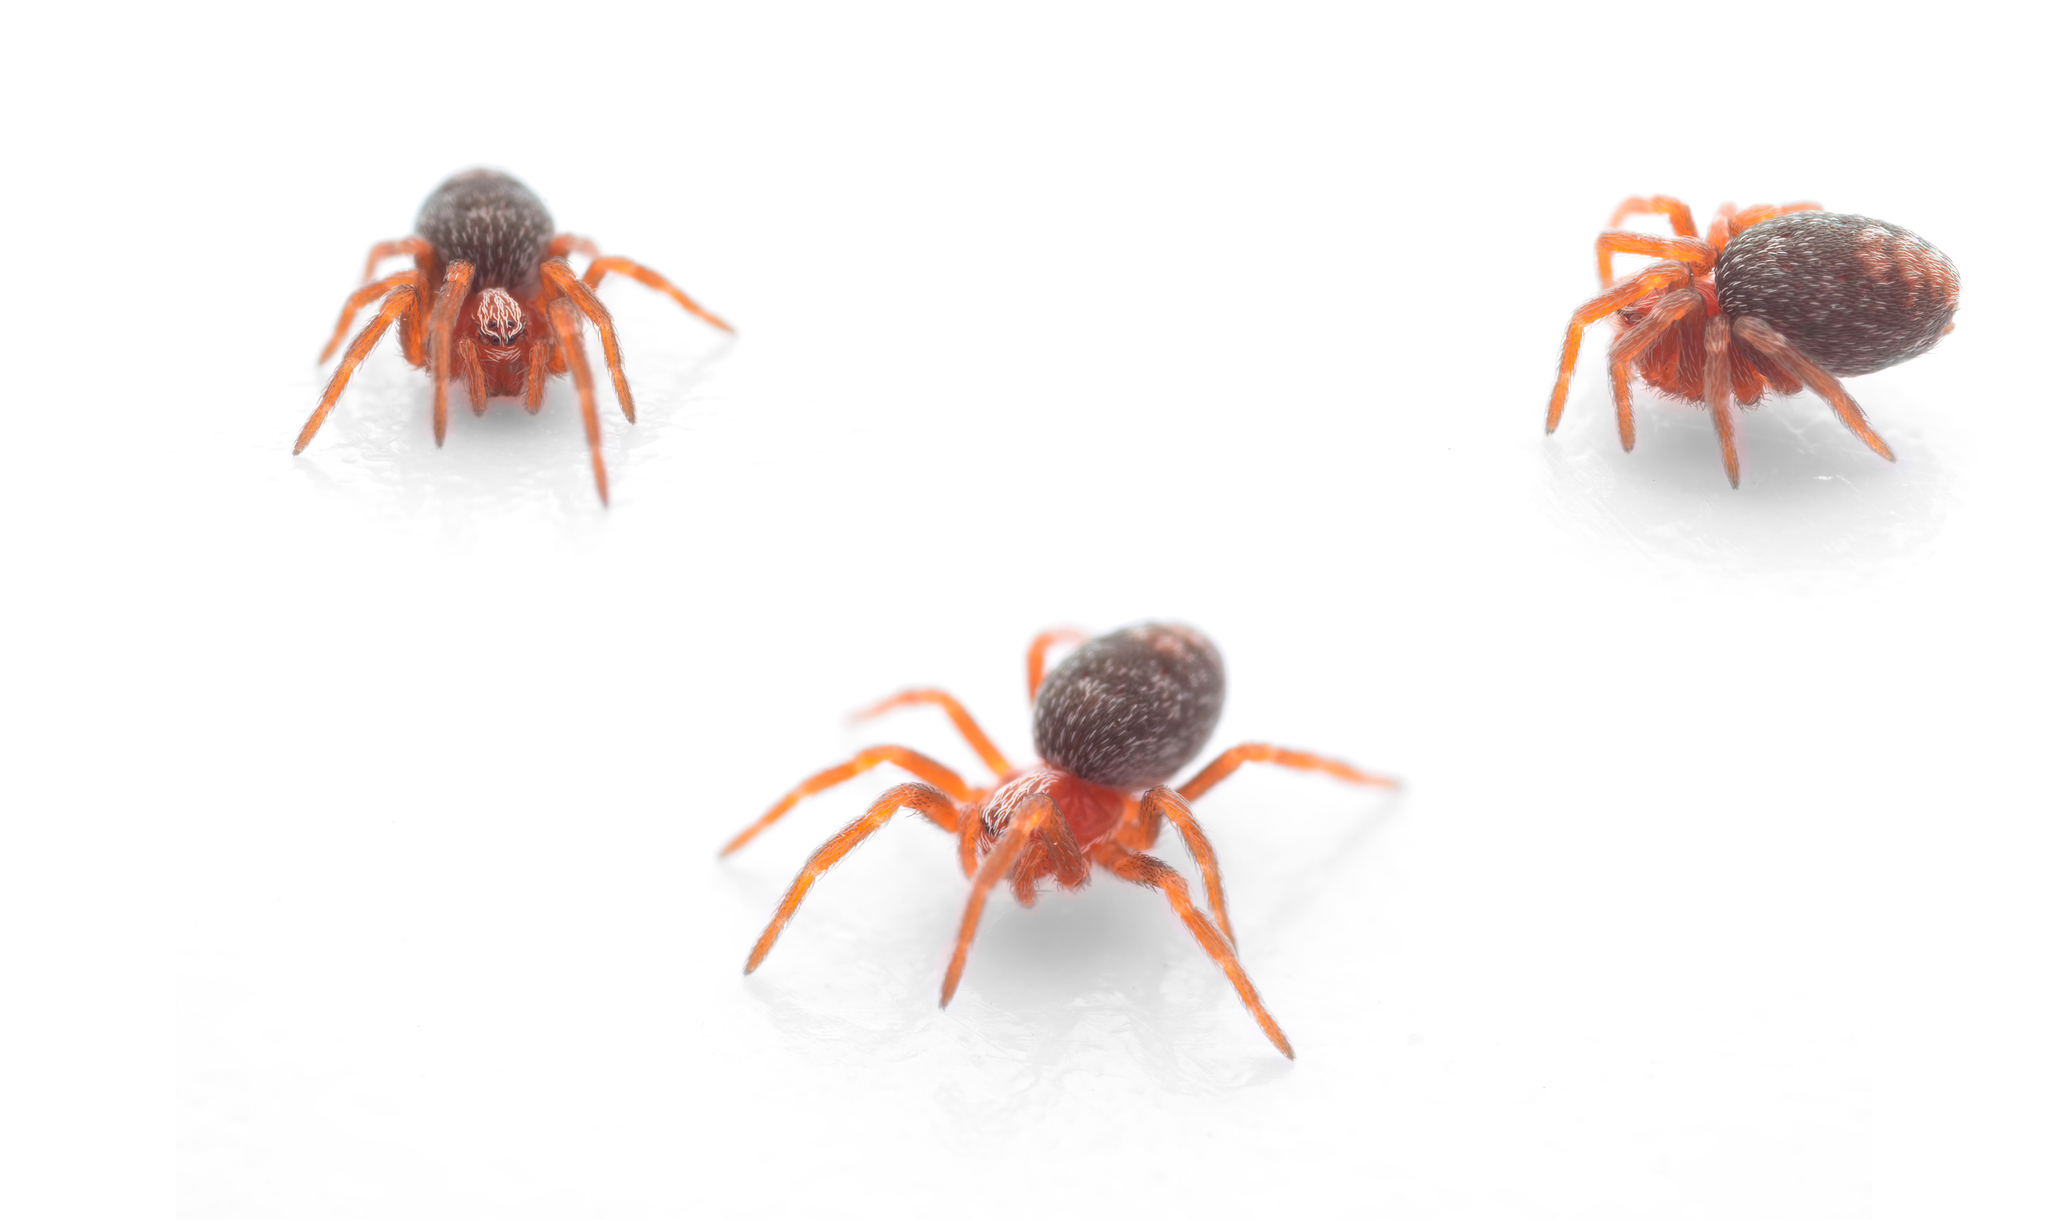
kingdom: Animalia
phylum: Arthropoda
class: Arachnida
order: Araneae
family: Dictynidae
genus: Marilynia
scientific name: Marilynia bicolor
